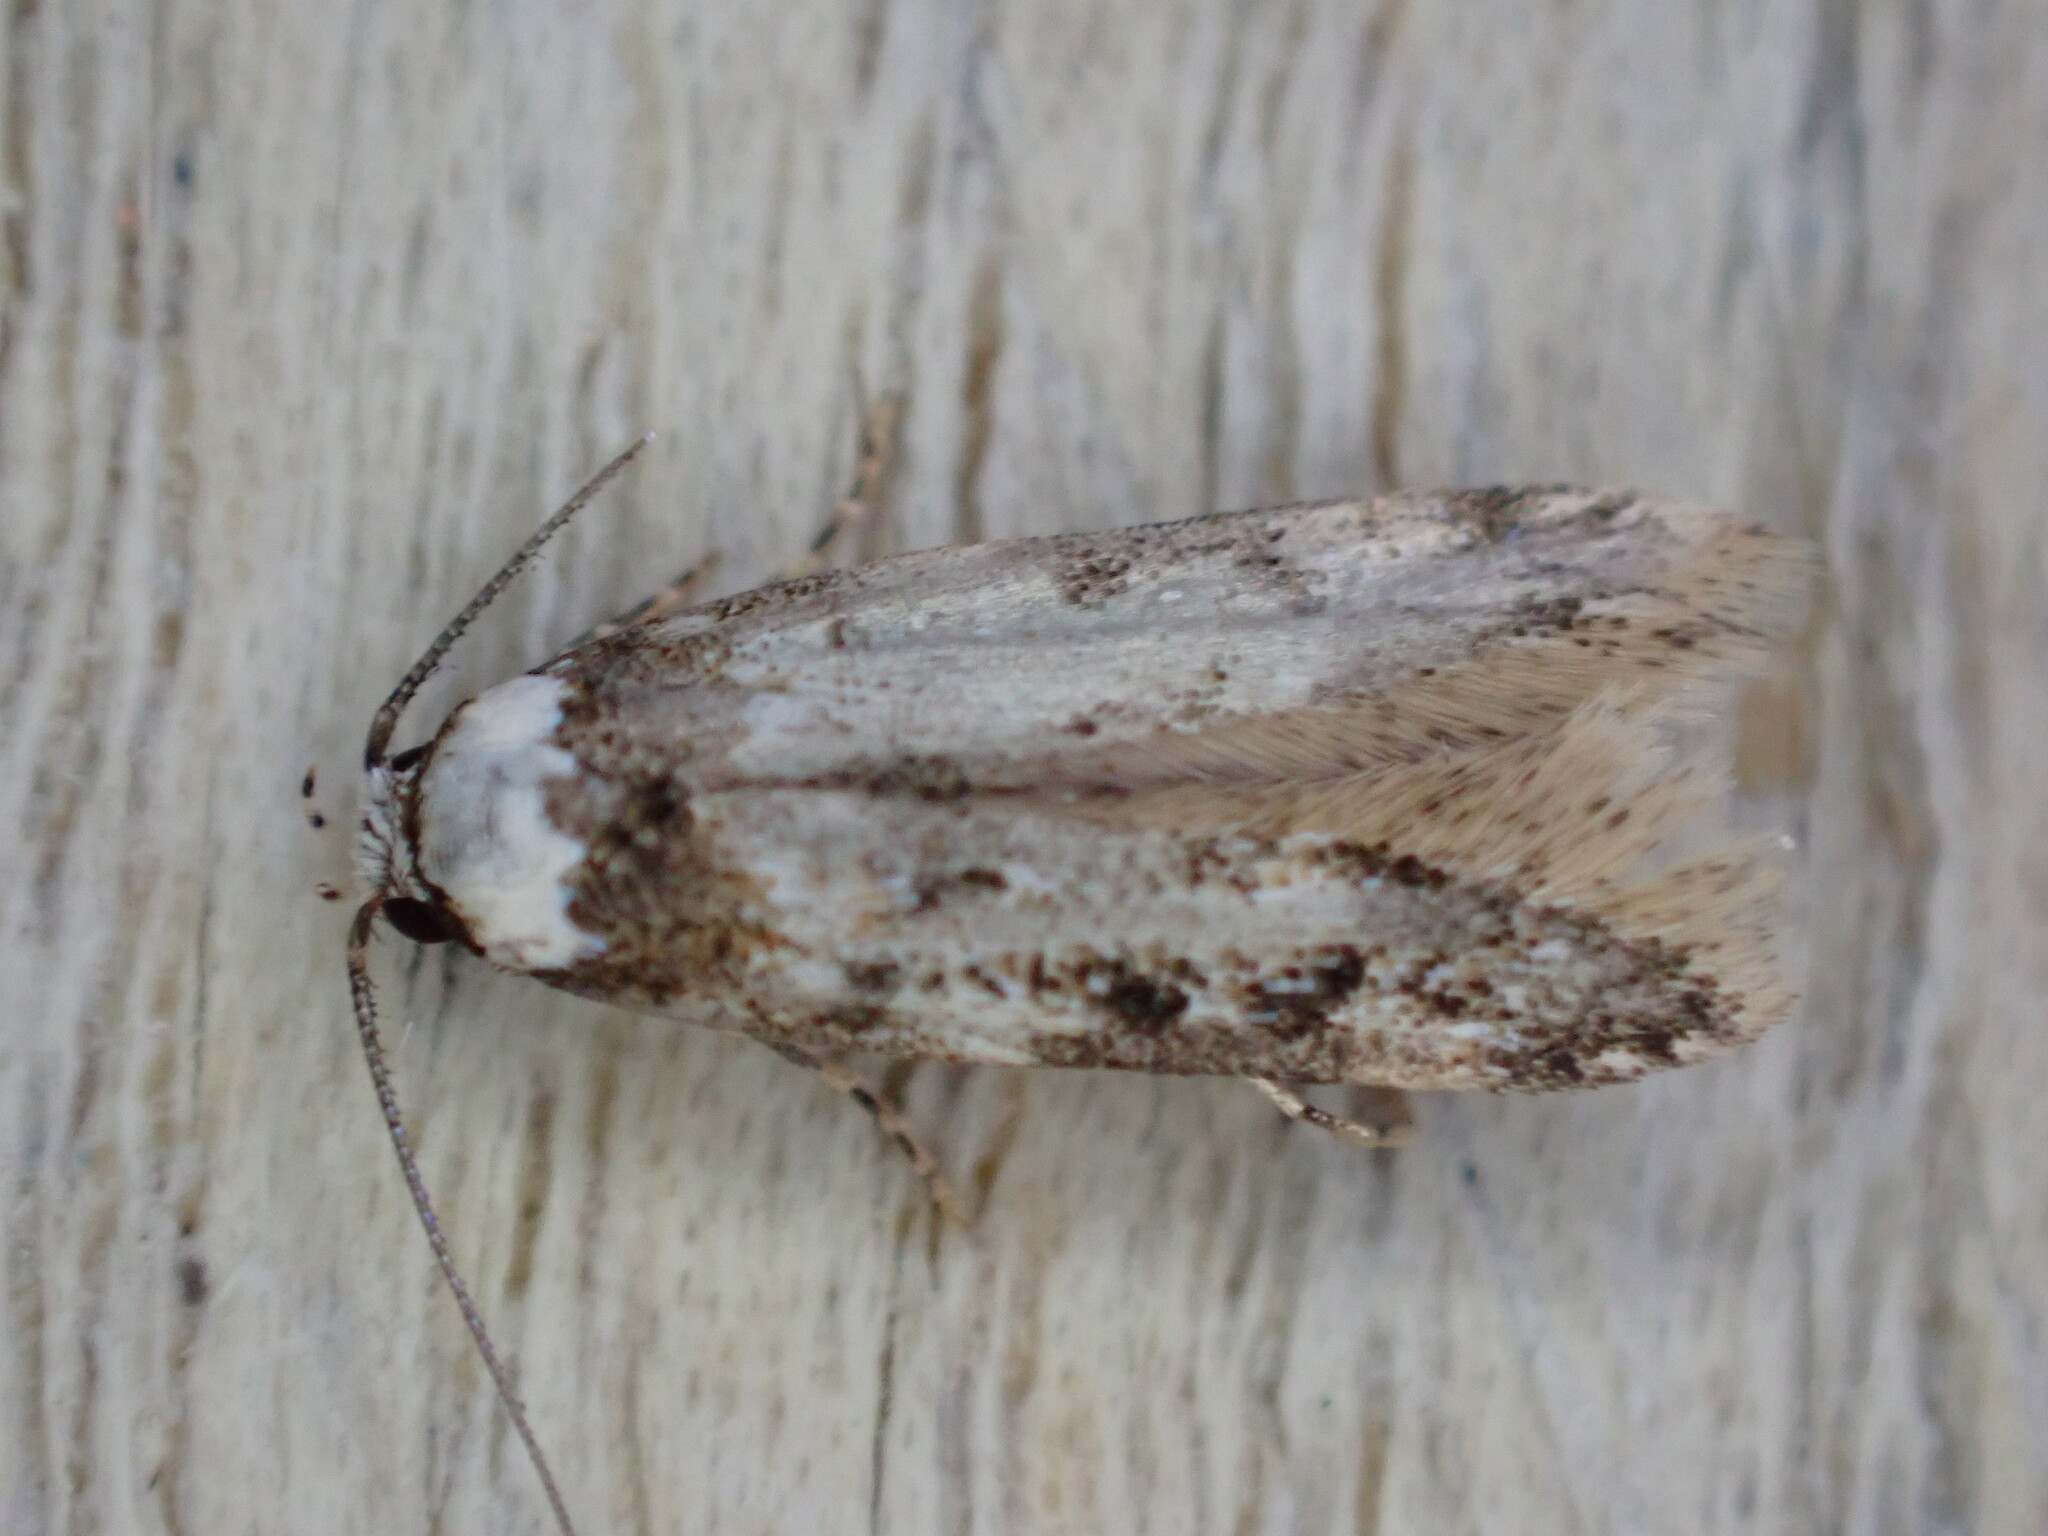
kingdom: Animalia
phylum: Arthropoda
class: Insecta
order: Lepidoptera
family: Oecophoridae
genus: Endrosis
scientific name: Endrosis sarcitrella
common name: White-shouldered house moth
